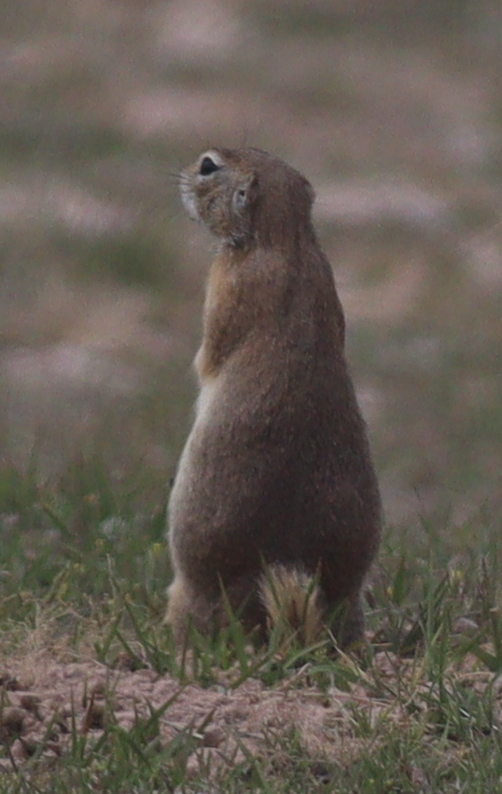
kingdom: Animalia
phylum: Chordata
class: Mammalia
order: Rodentia
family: Sciuridae
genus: Spermophilus
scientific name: Spermophilus xanthoprymnus
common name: Asia minor ground squirrel
